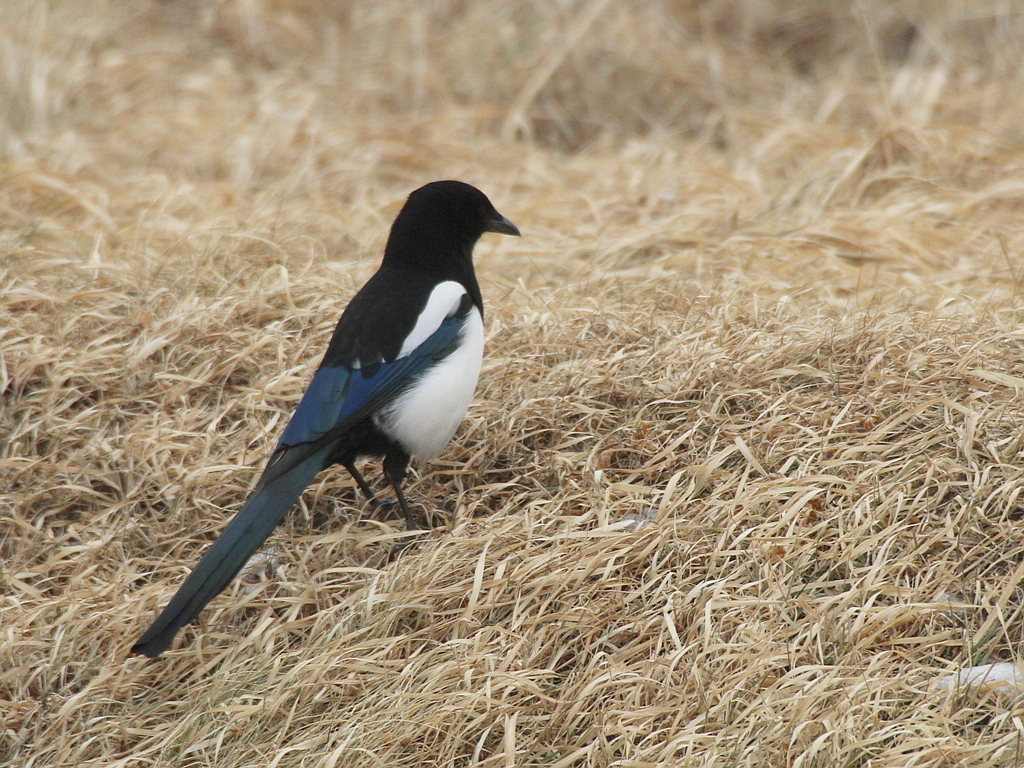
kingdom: Animalia
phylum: Chordata
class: Aves
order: Passeriformes
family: Corvidae
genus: Pica
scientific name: Pica serica
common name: Oriental magpie
